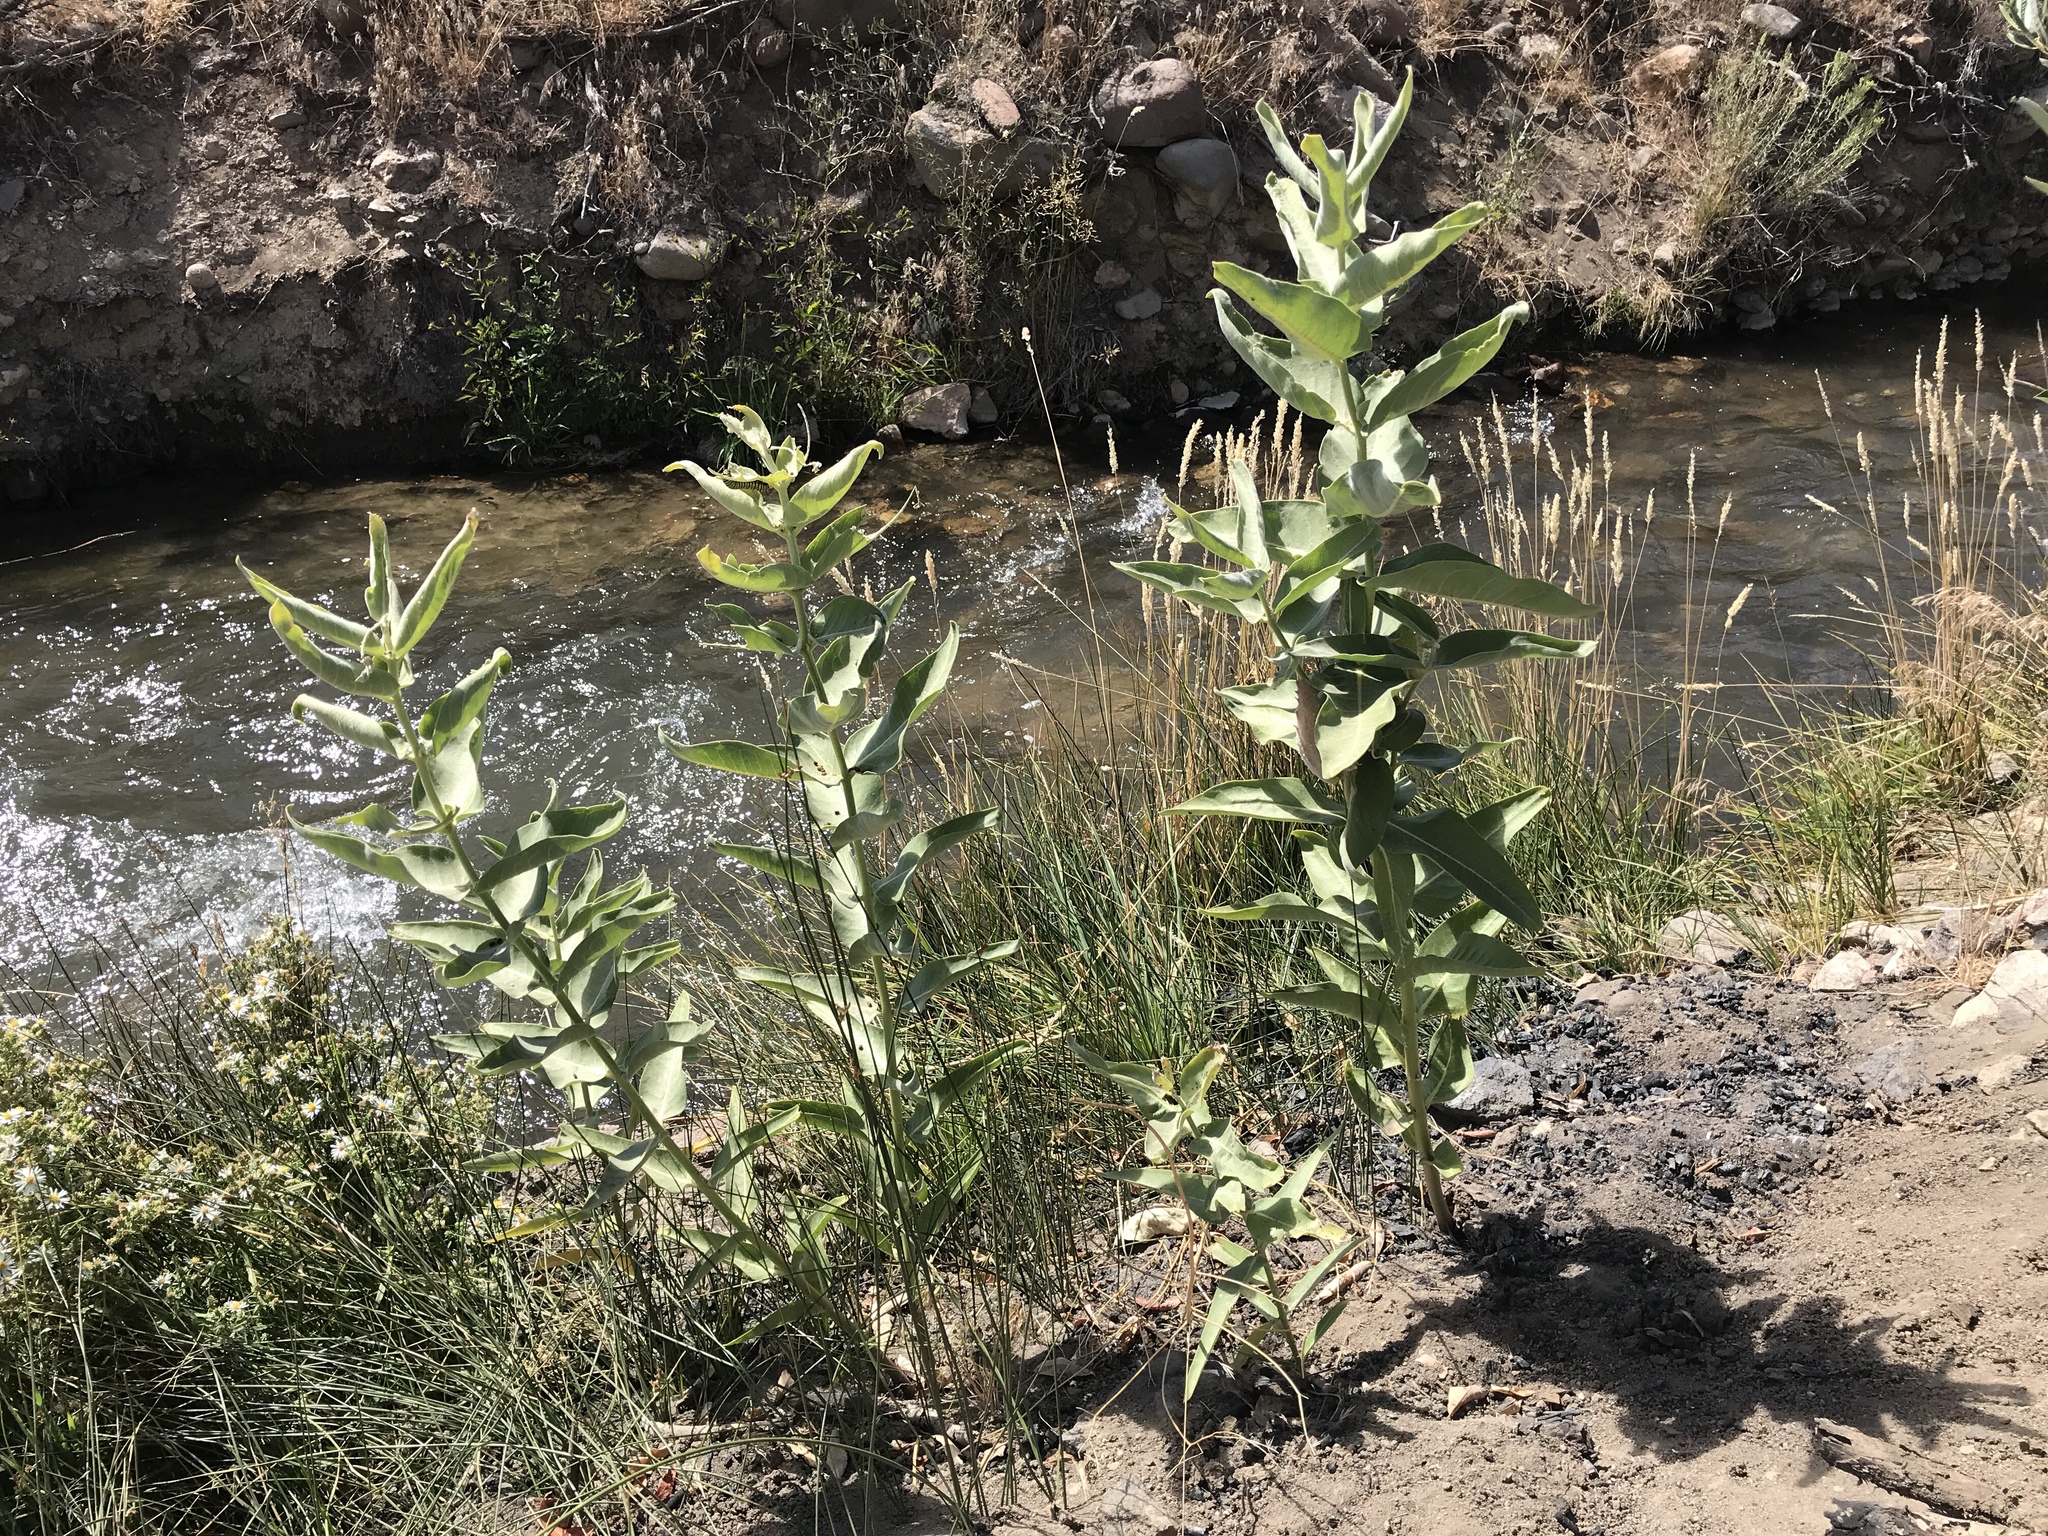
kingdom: Plantae
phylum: Tracheophyta
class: Magnoliopsida
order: Gentianales
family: Apocynaceae
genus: Asclepias
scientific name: Asclepias speciosa
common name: Showy milkweed
